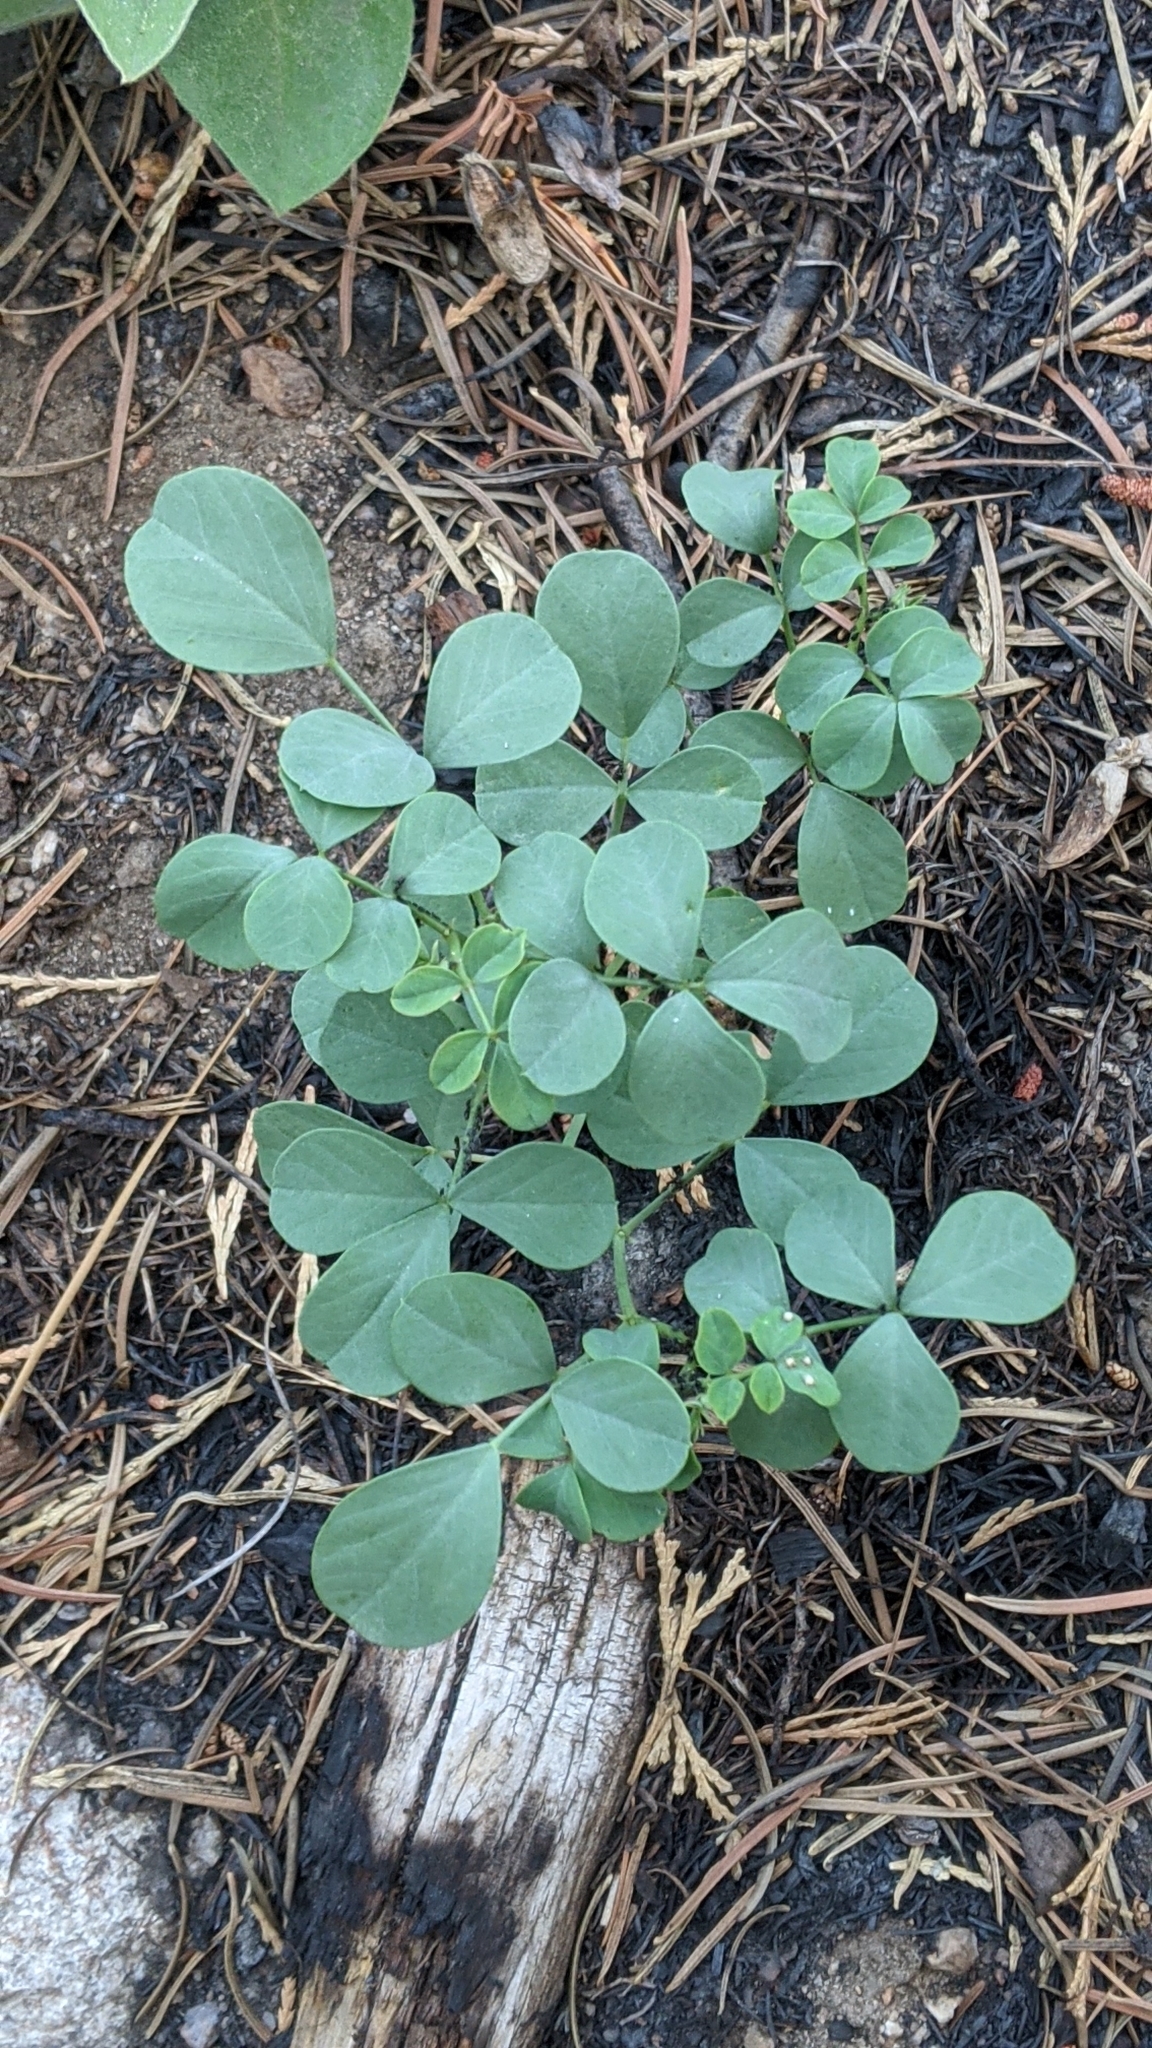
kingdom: Plantae
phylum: Tracheophyta
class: Magnoliopsida
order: Fabales
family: Fabaceae
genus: Hosackia
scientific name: Hosackia crassifolia
